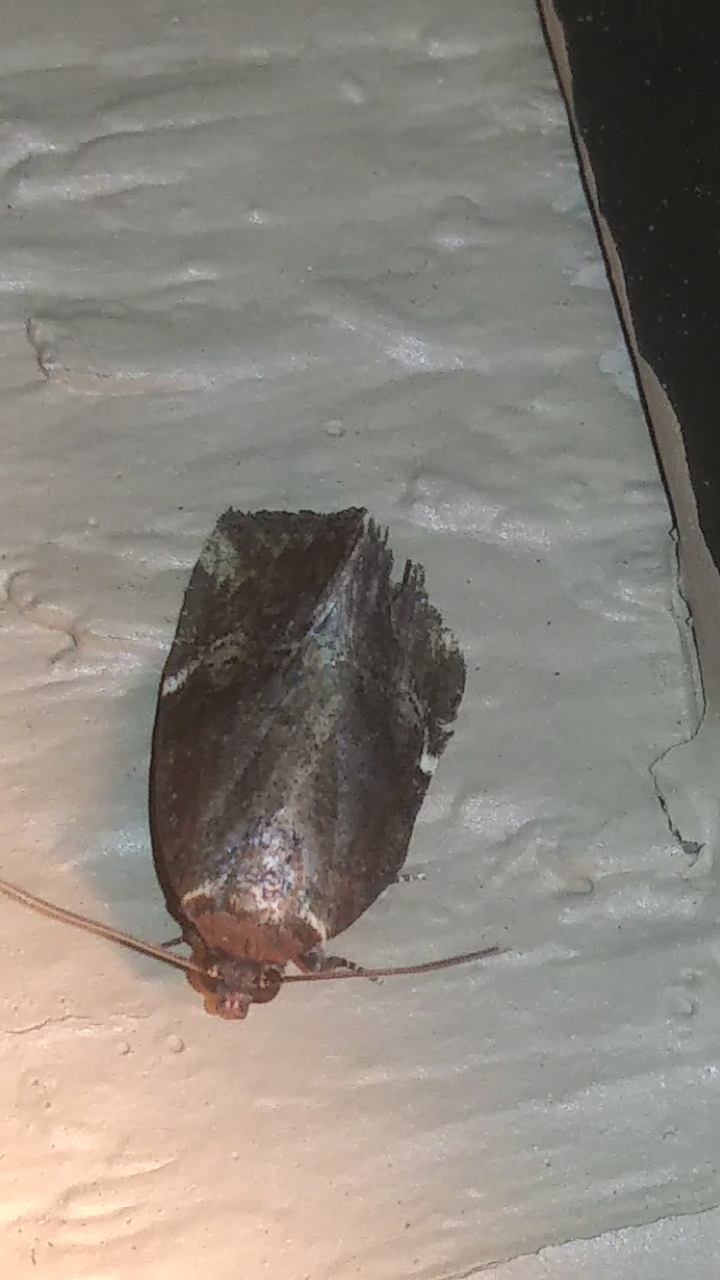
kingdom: Animalia
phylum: Arthropoda
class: Insecta
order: Lepidoptera
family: Noctuidae
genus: Elaphria
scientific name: Elaphria versicolor
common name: Fir harlequin
